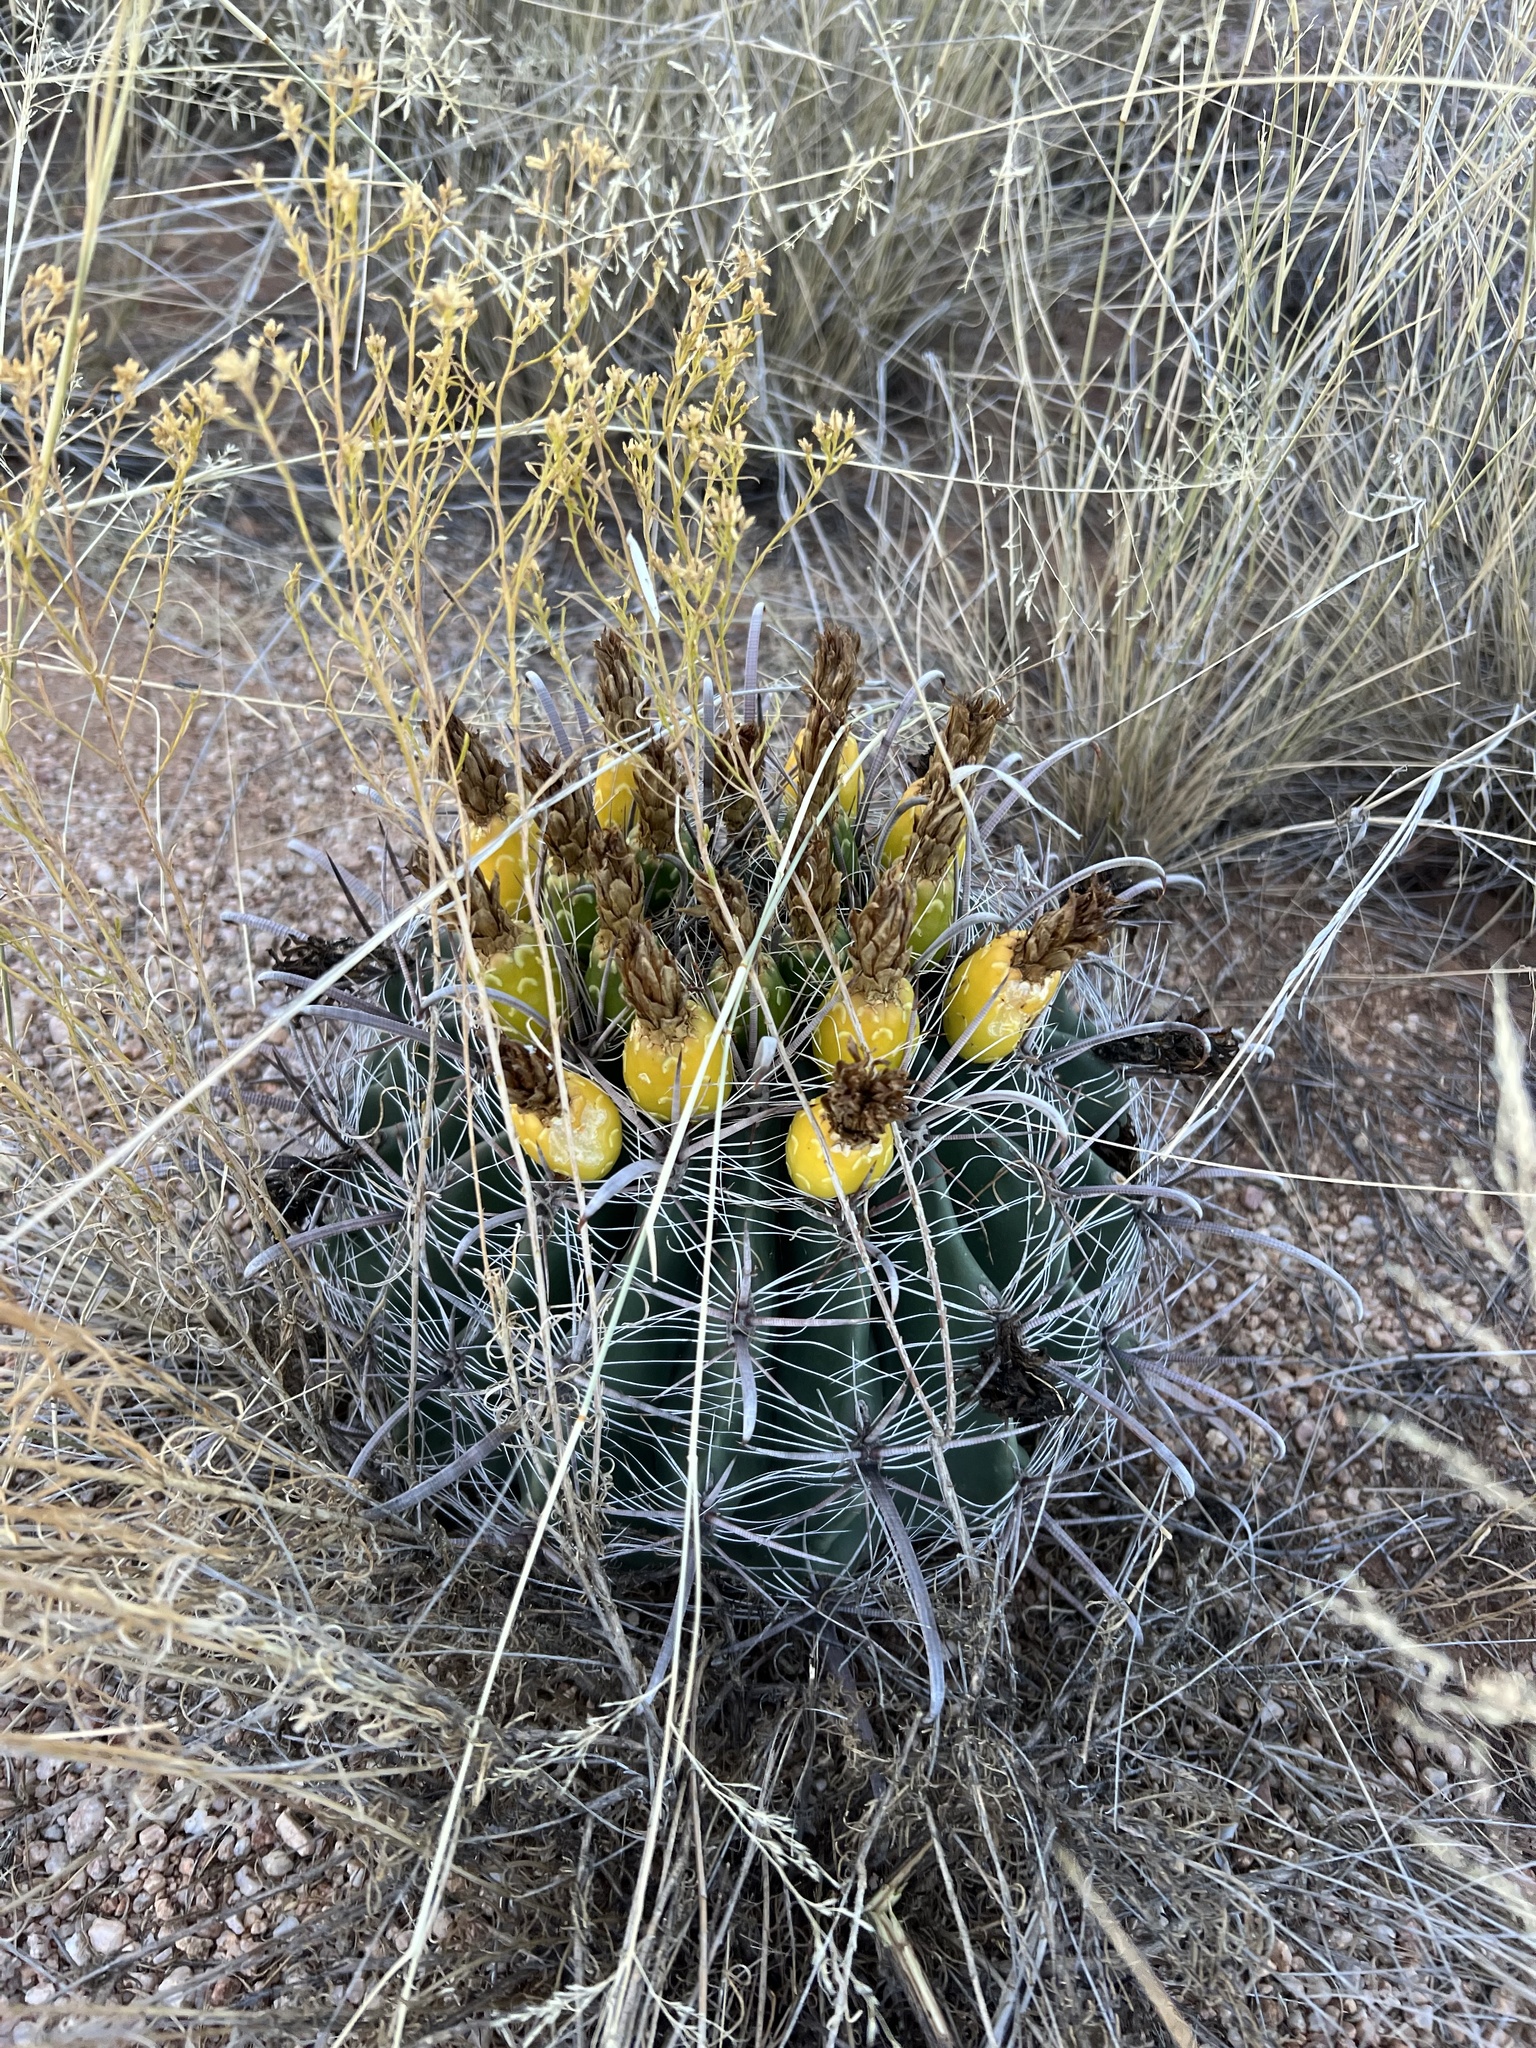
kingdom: Plantae
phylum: Tracheophyta
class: Magnoliopsida
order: Caryophyllales
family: Cactaceae
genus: Ferocactus
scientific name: Ferocactus wislizeni
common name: Candy barrel cactus
